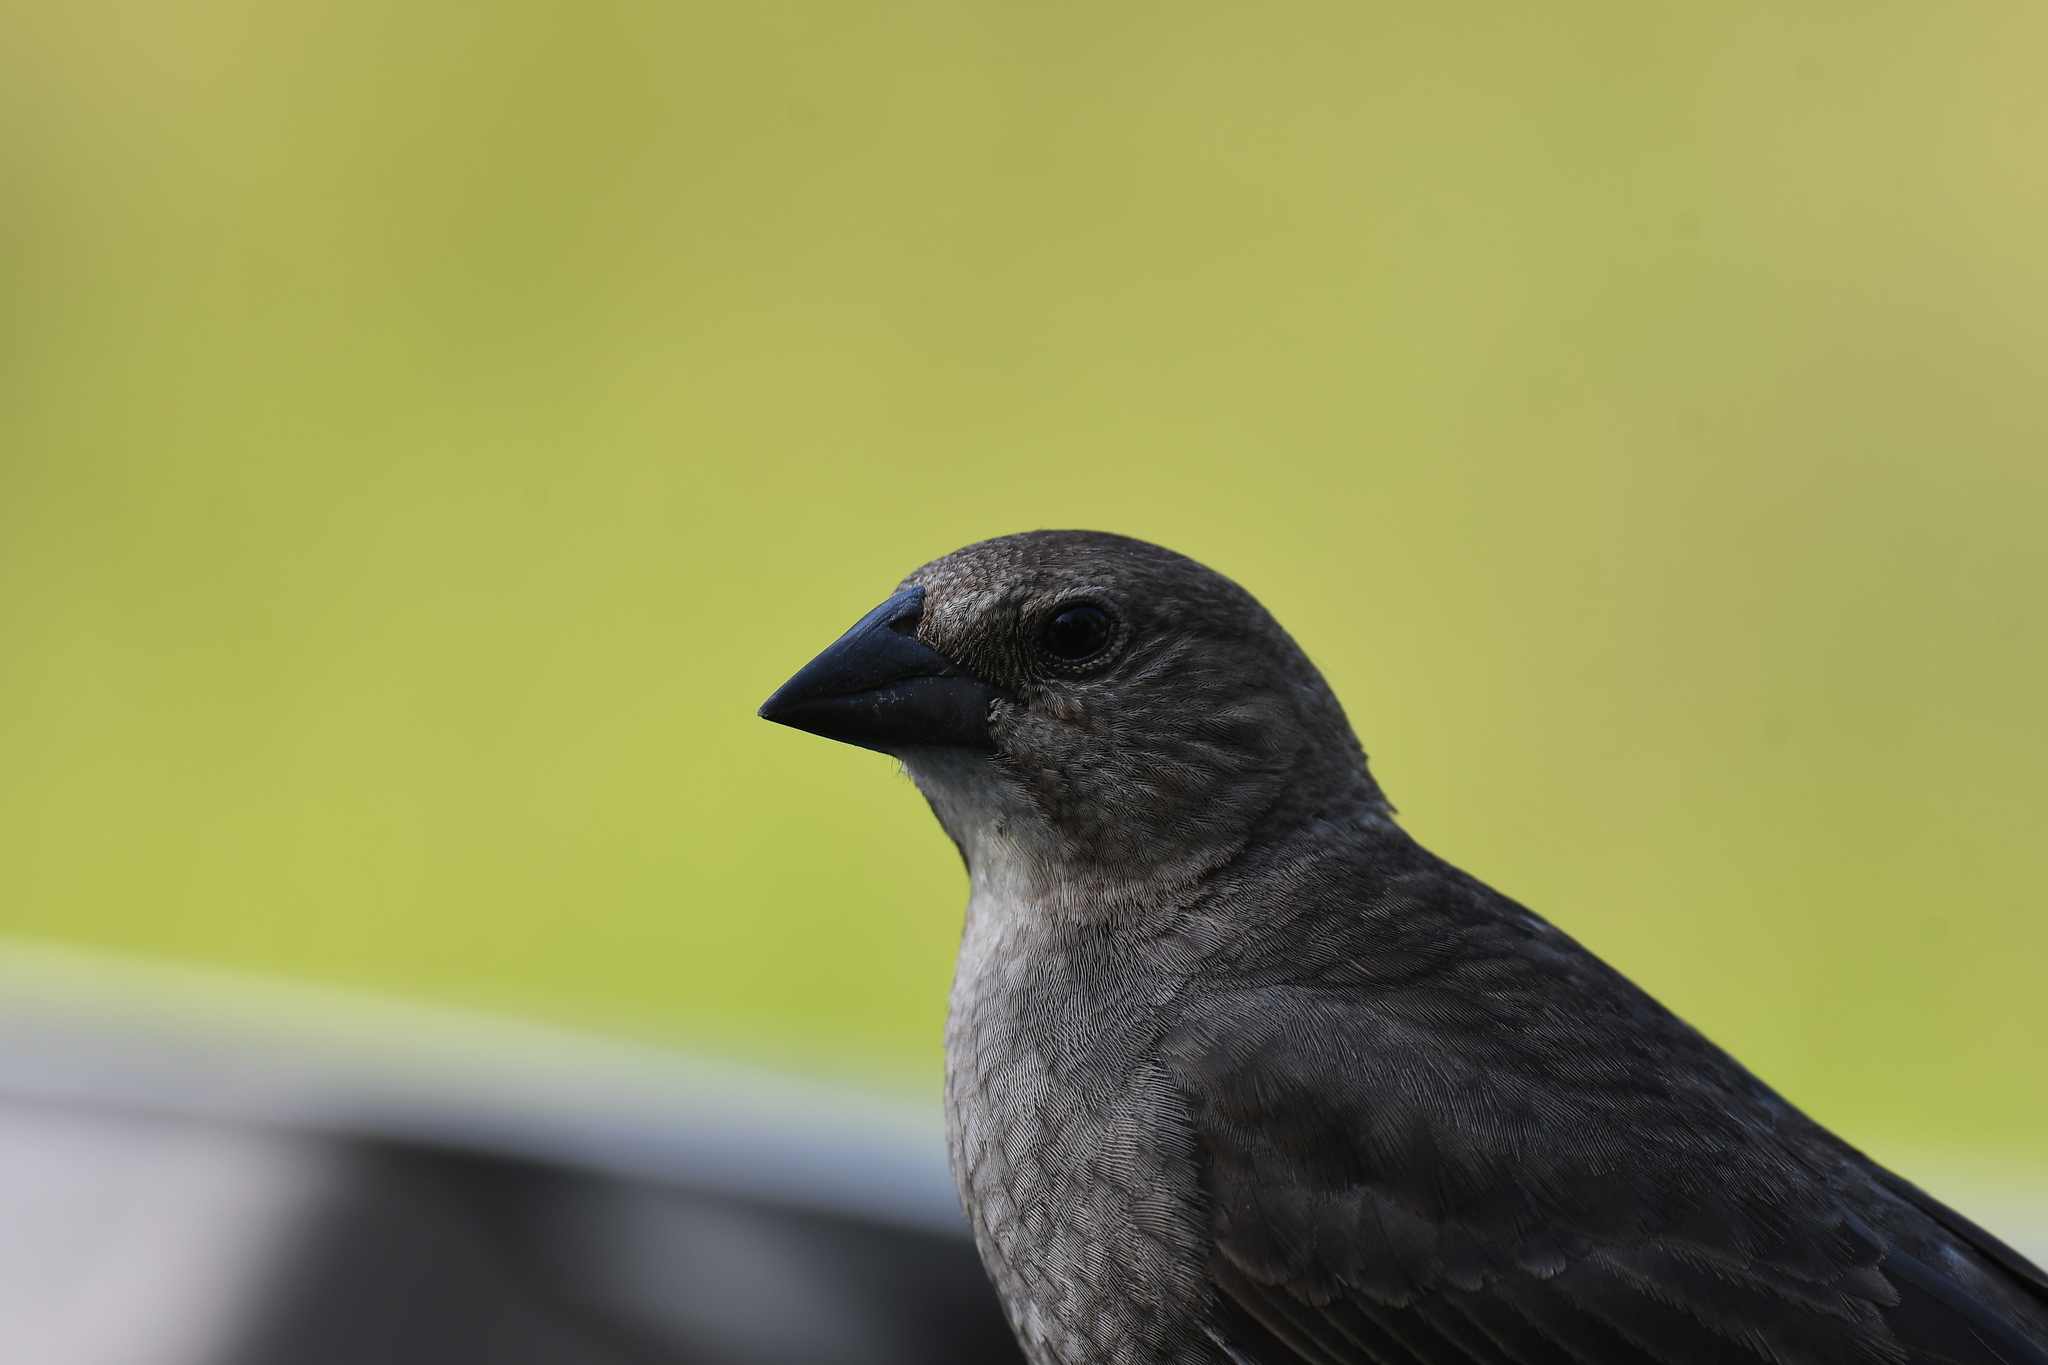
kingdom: Animalia
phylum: Chordata
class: Aves
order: Passeriformes
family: Icteridae
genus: Molothrus
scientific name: Molothrus ater
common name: Brown-headed cowbird
